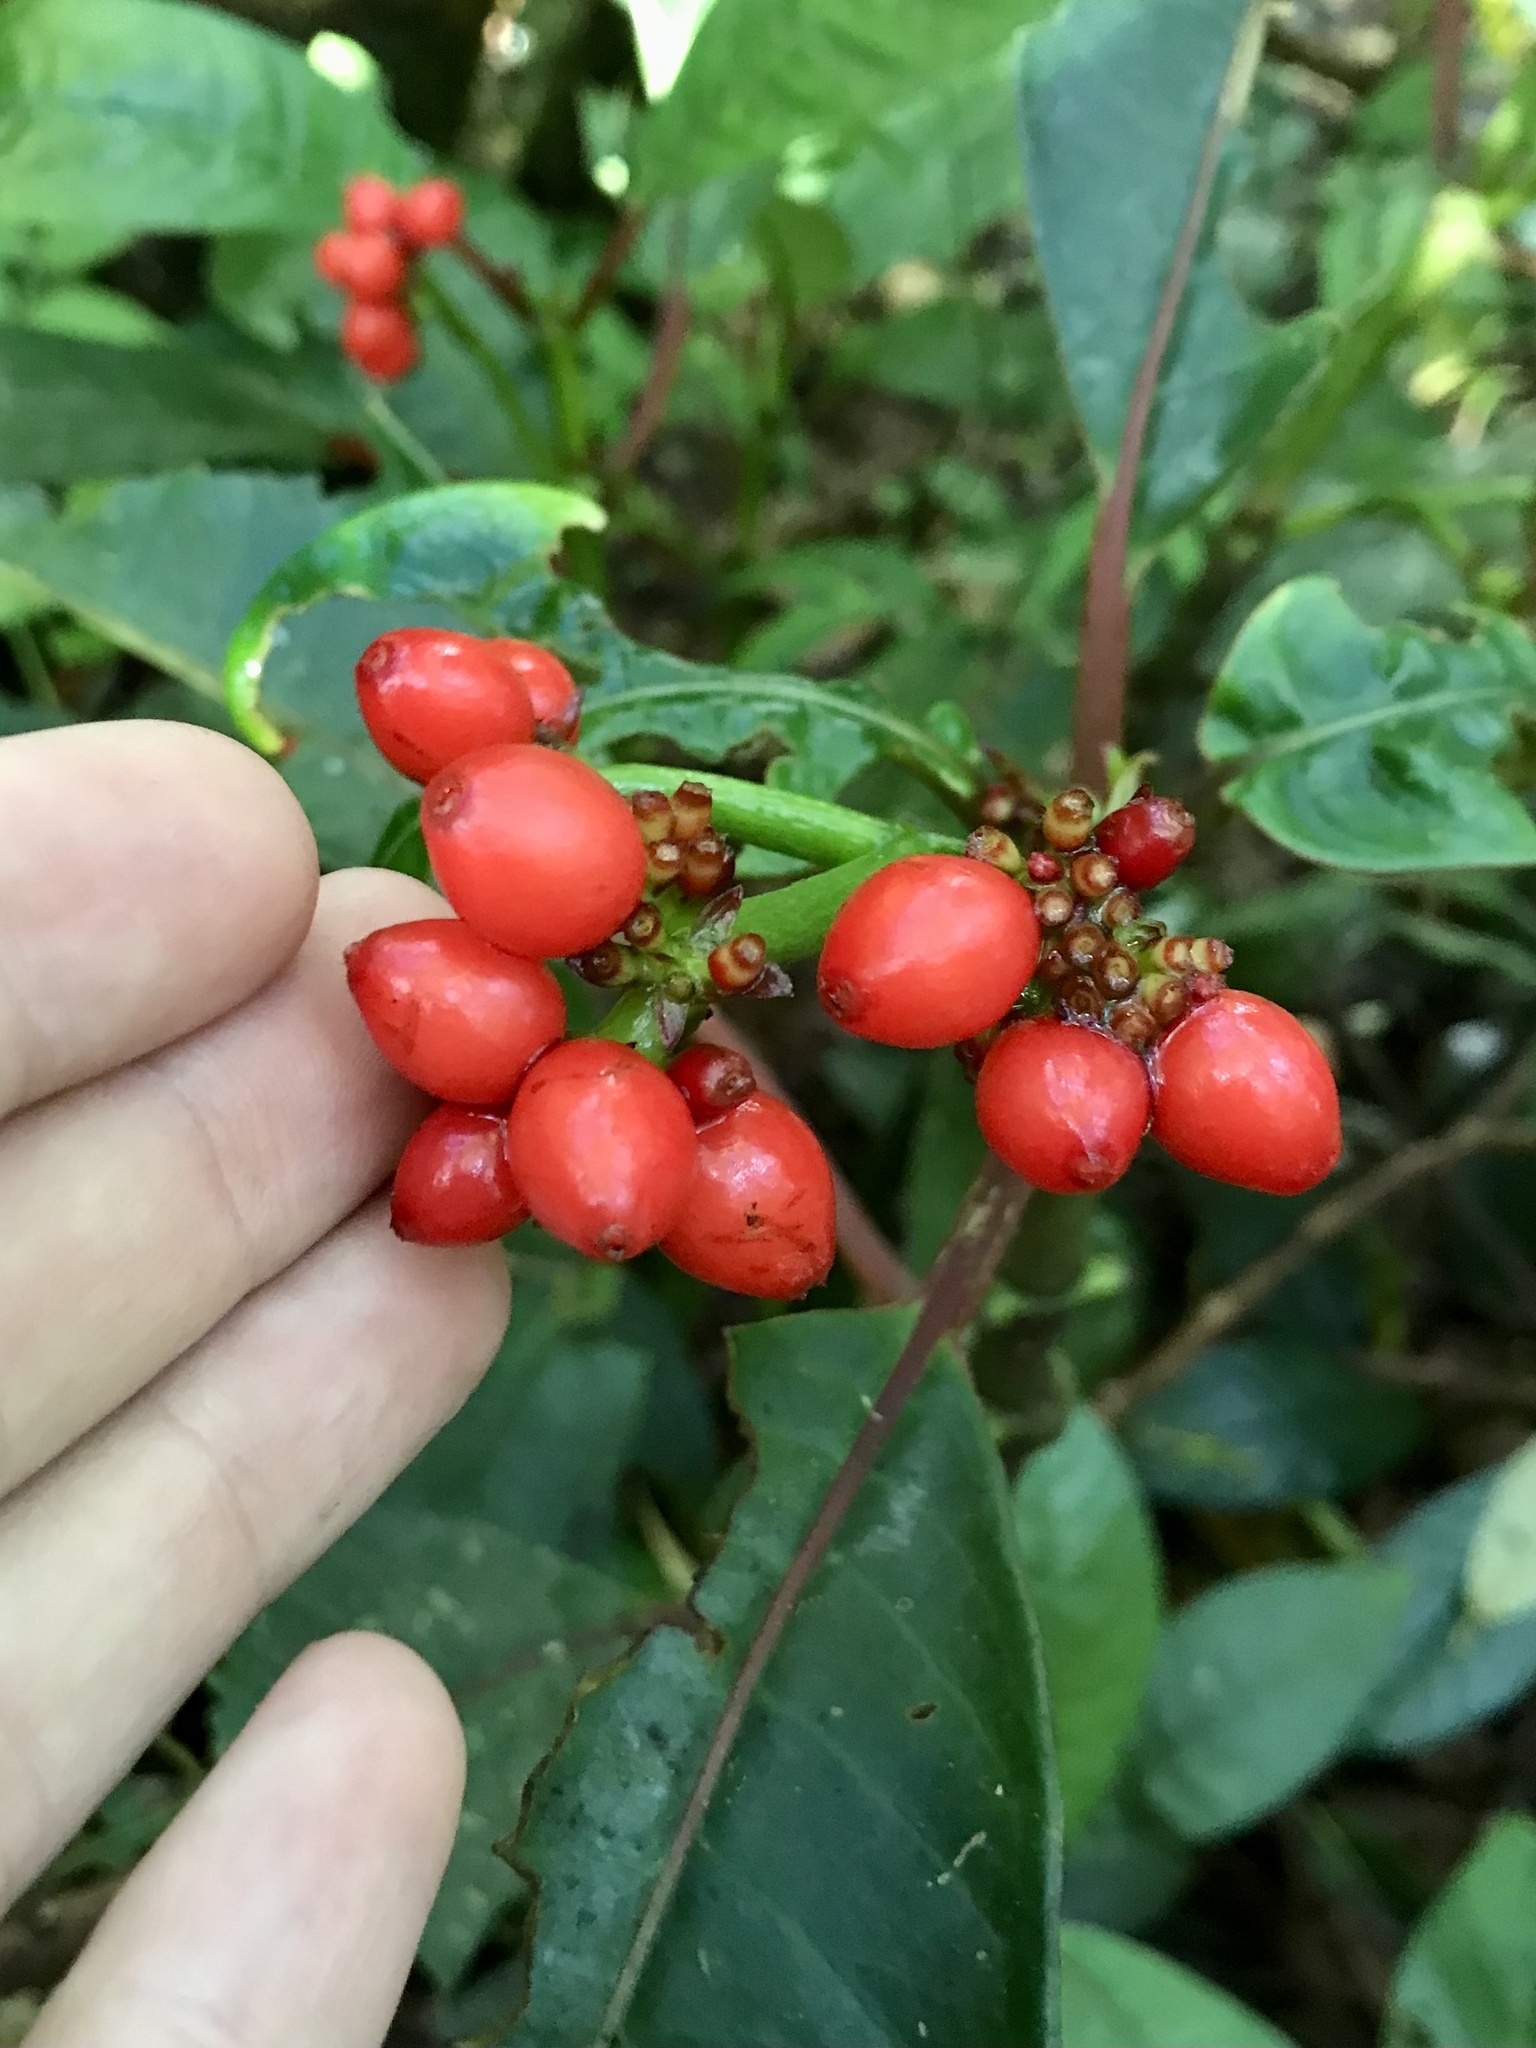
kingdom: Plantae
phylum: Tracheophyta
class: Magnoliopsida
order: Gentianales
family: Rubiaceae
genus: Notopleura
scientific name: Notopleura uliginosa
